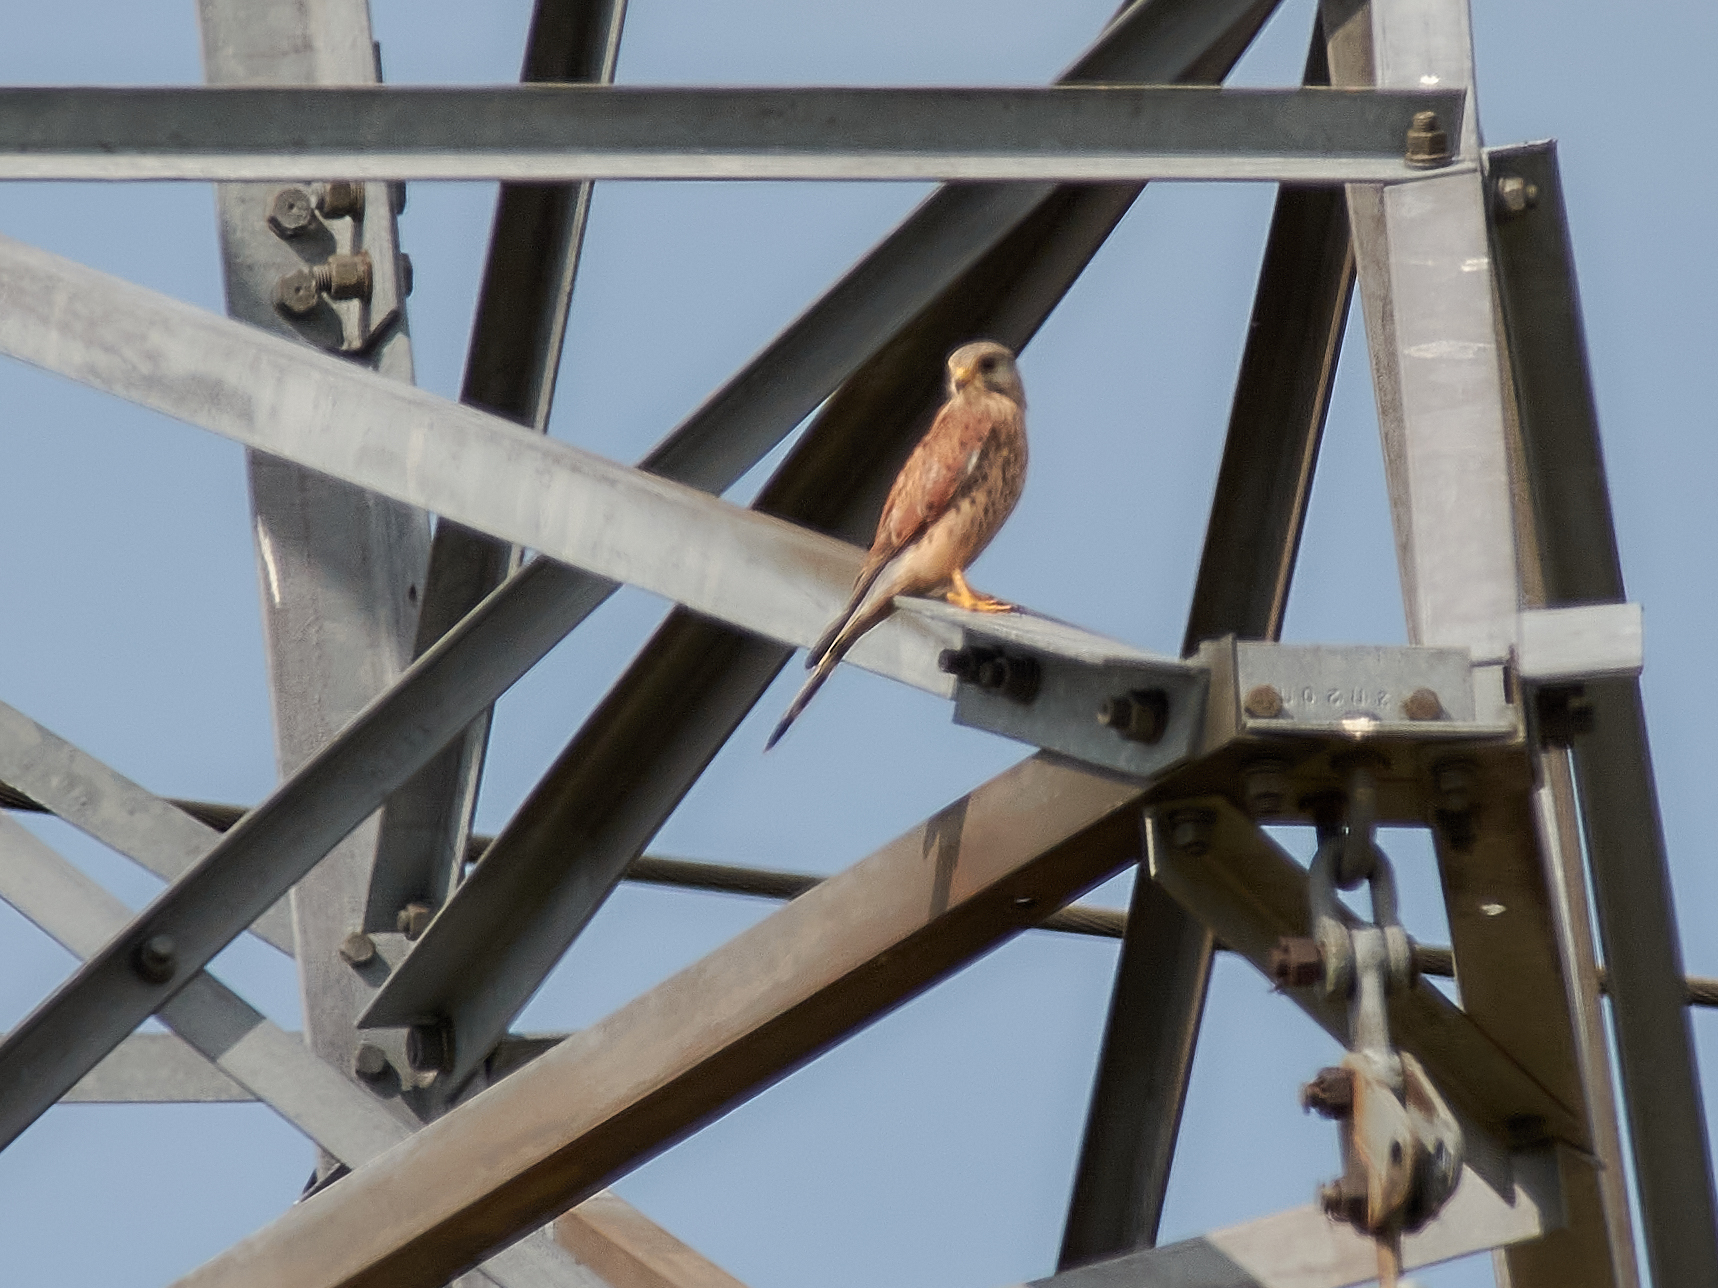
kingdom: Animalia
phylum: Chordata
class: Aves
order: Falconiformes
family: Falconidae
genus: Falco
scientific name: Falco tinnunculus
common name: Common kestrel
